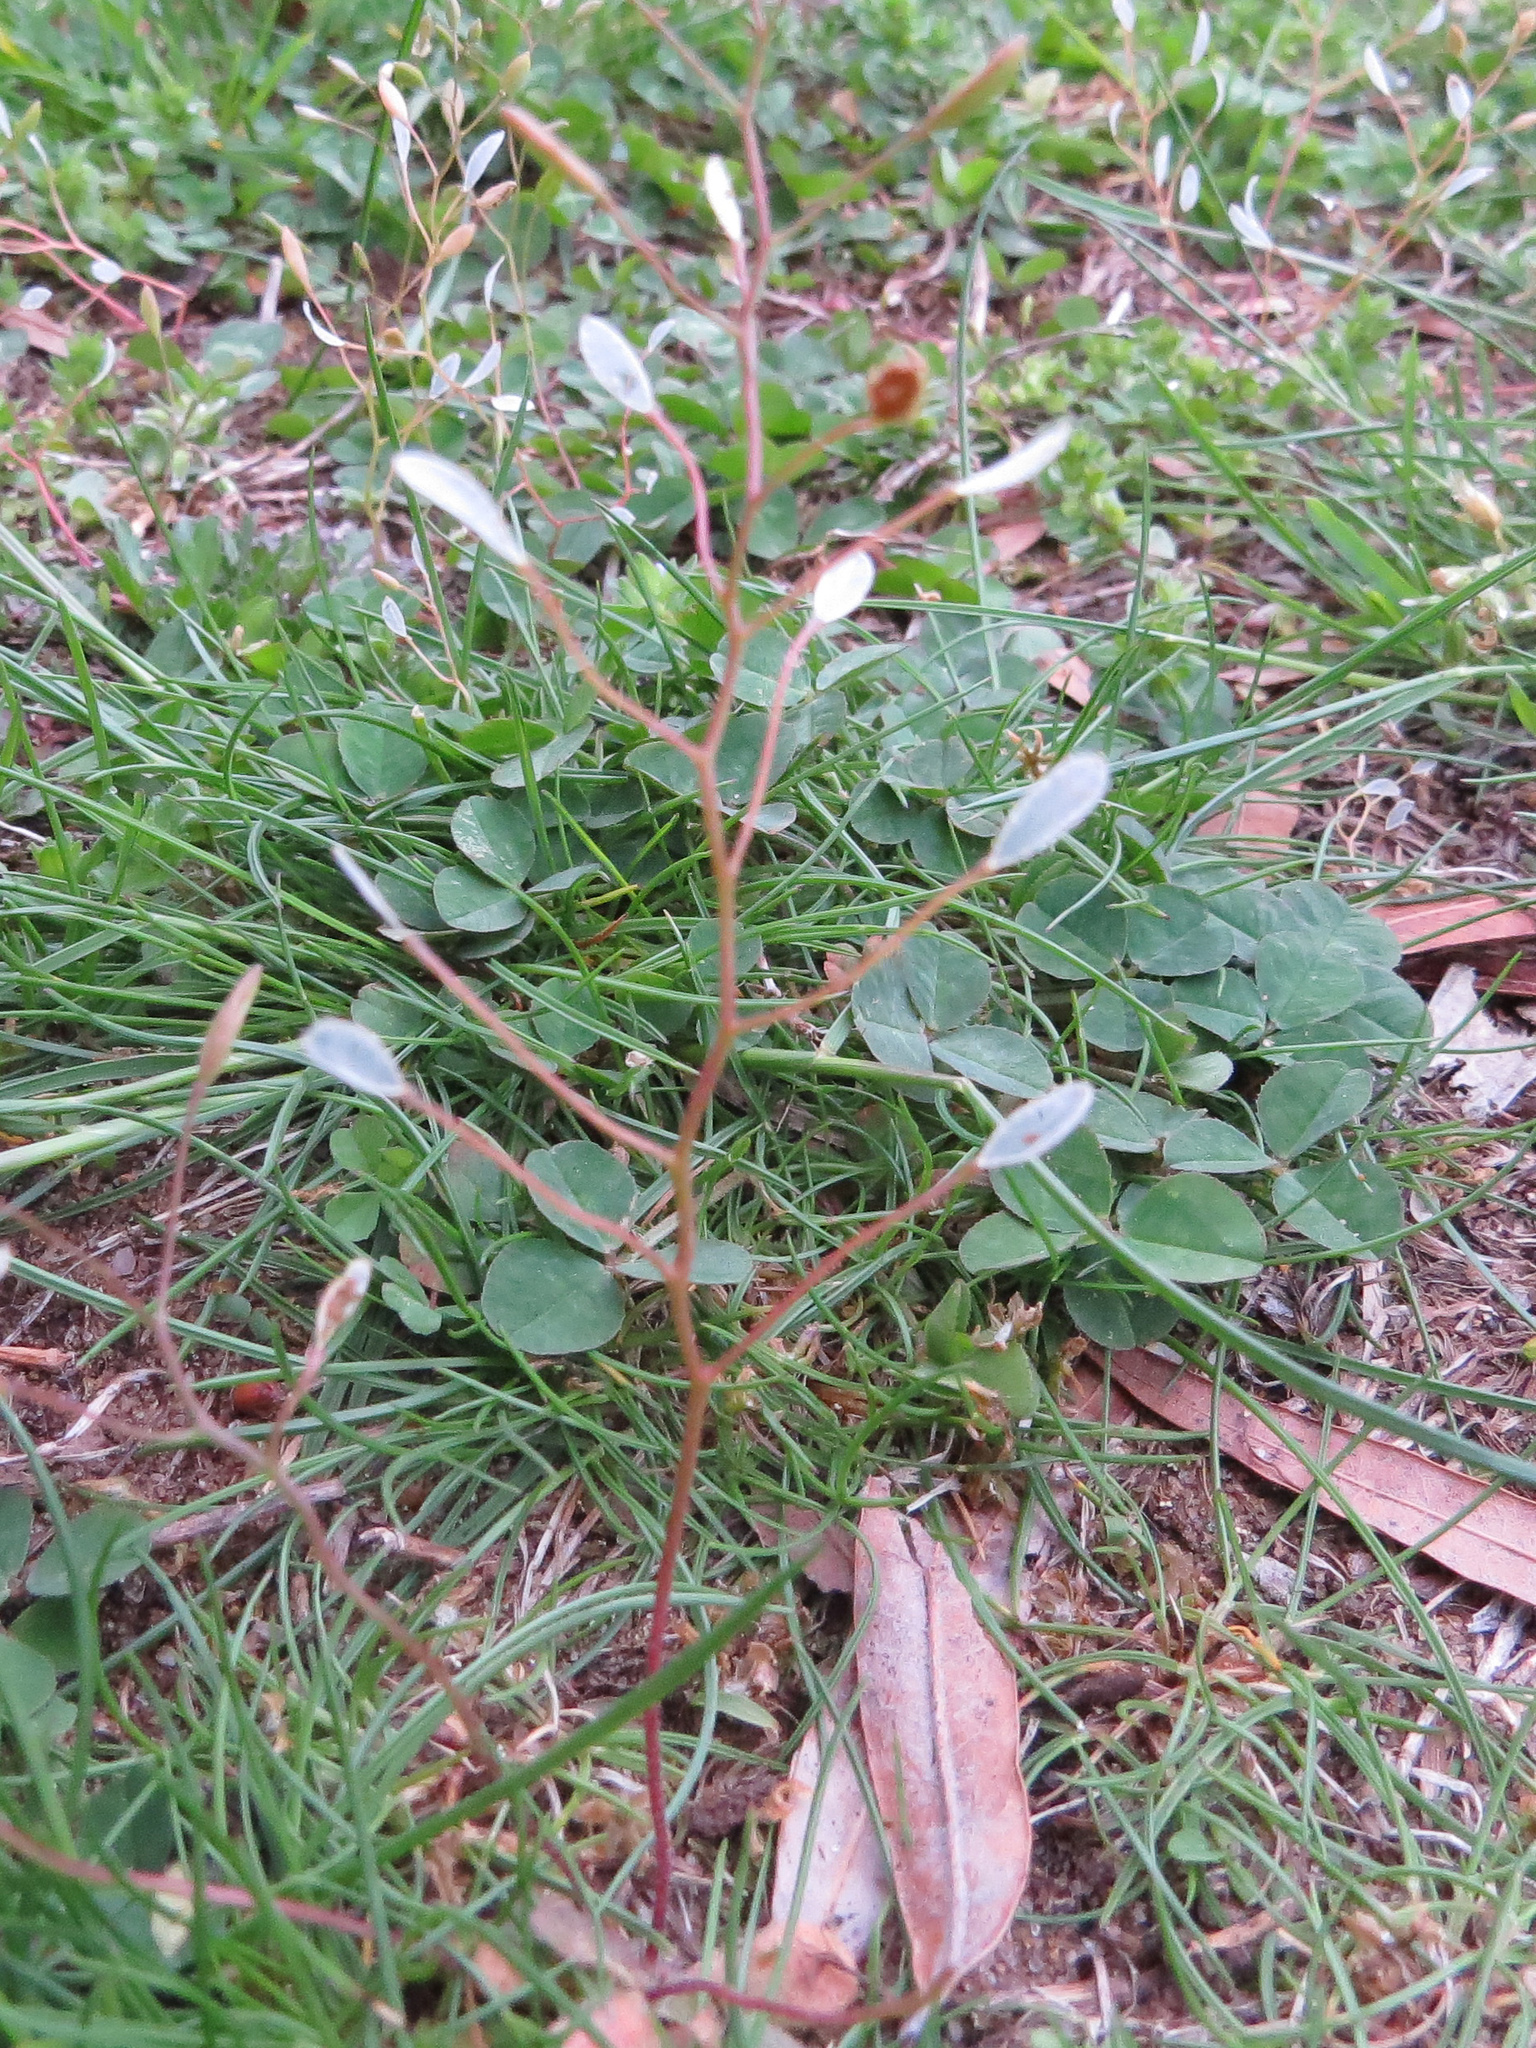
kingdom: Plantae
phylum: Tracheophyta
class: Magnoliopsida
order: Brassicales
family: Brassicaceae
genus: Draba
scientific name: Draba verna
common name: Spring draba
